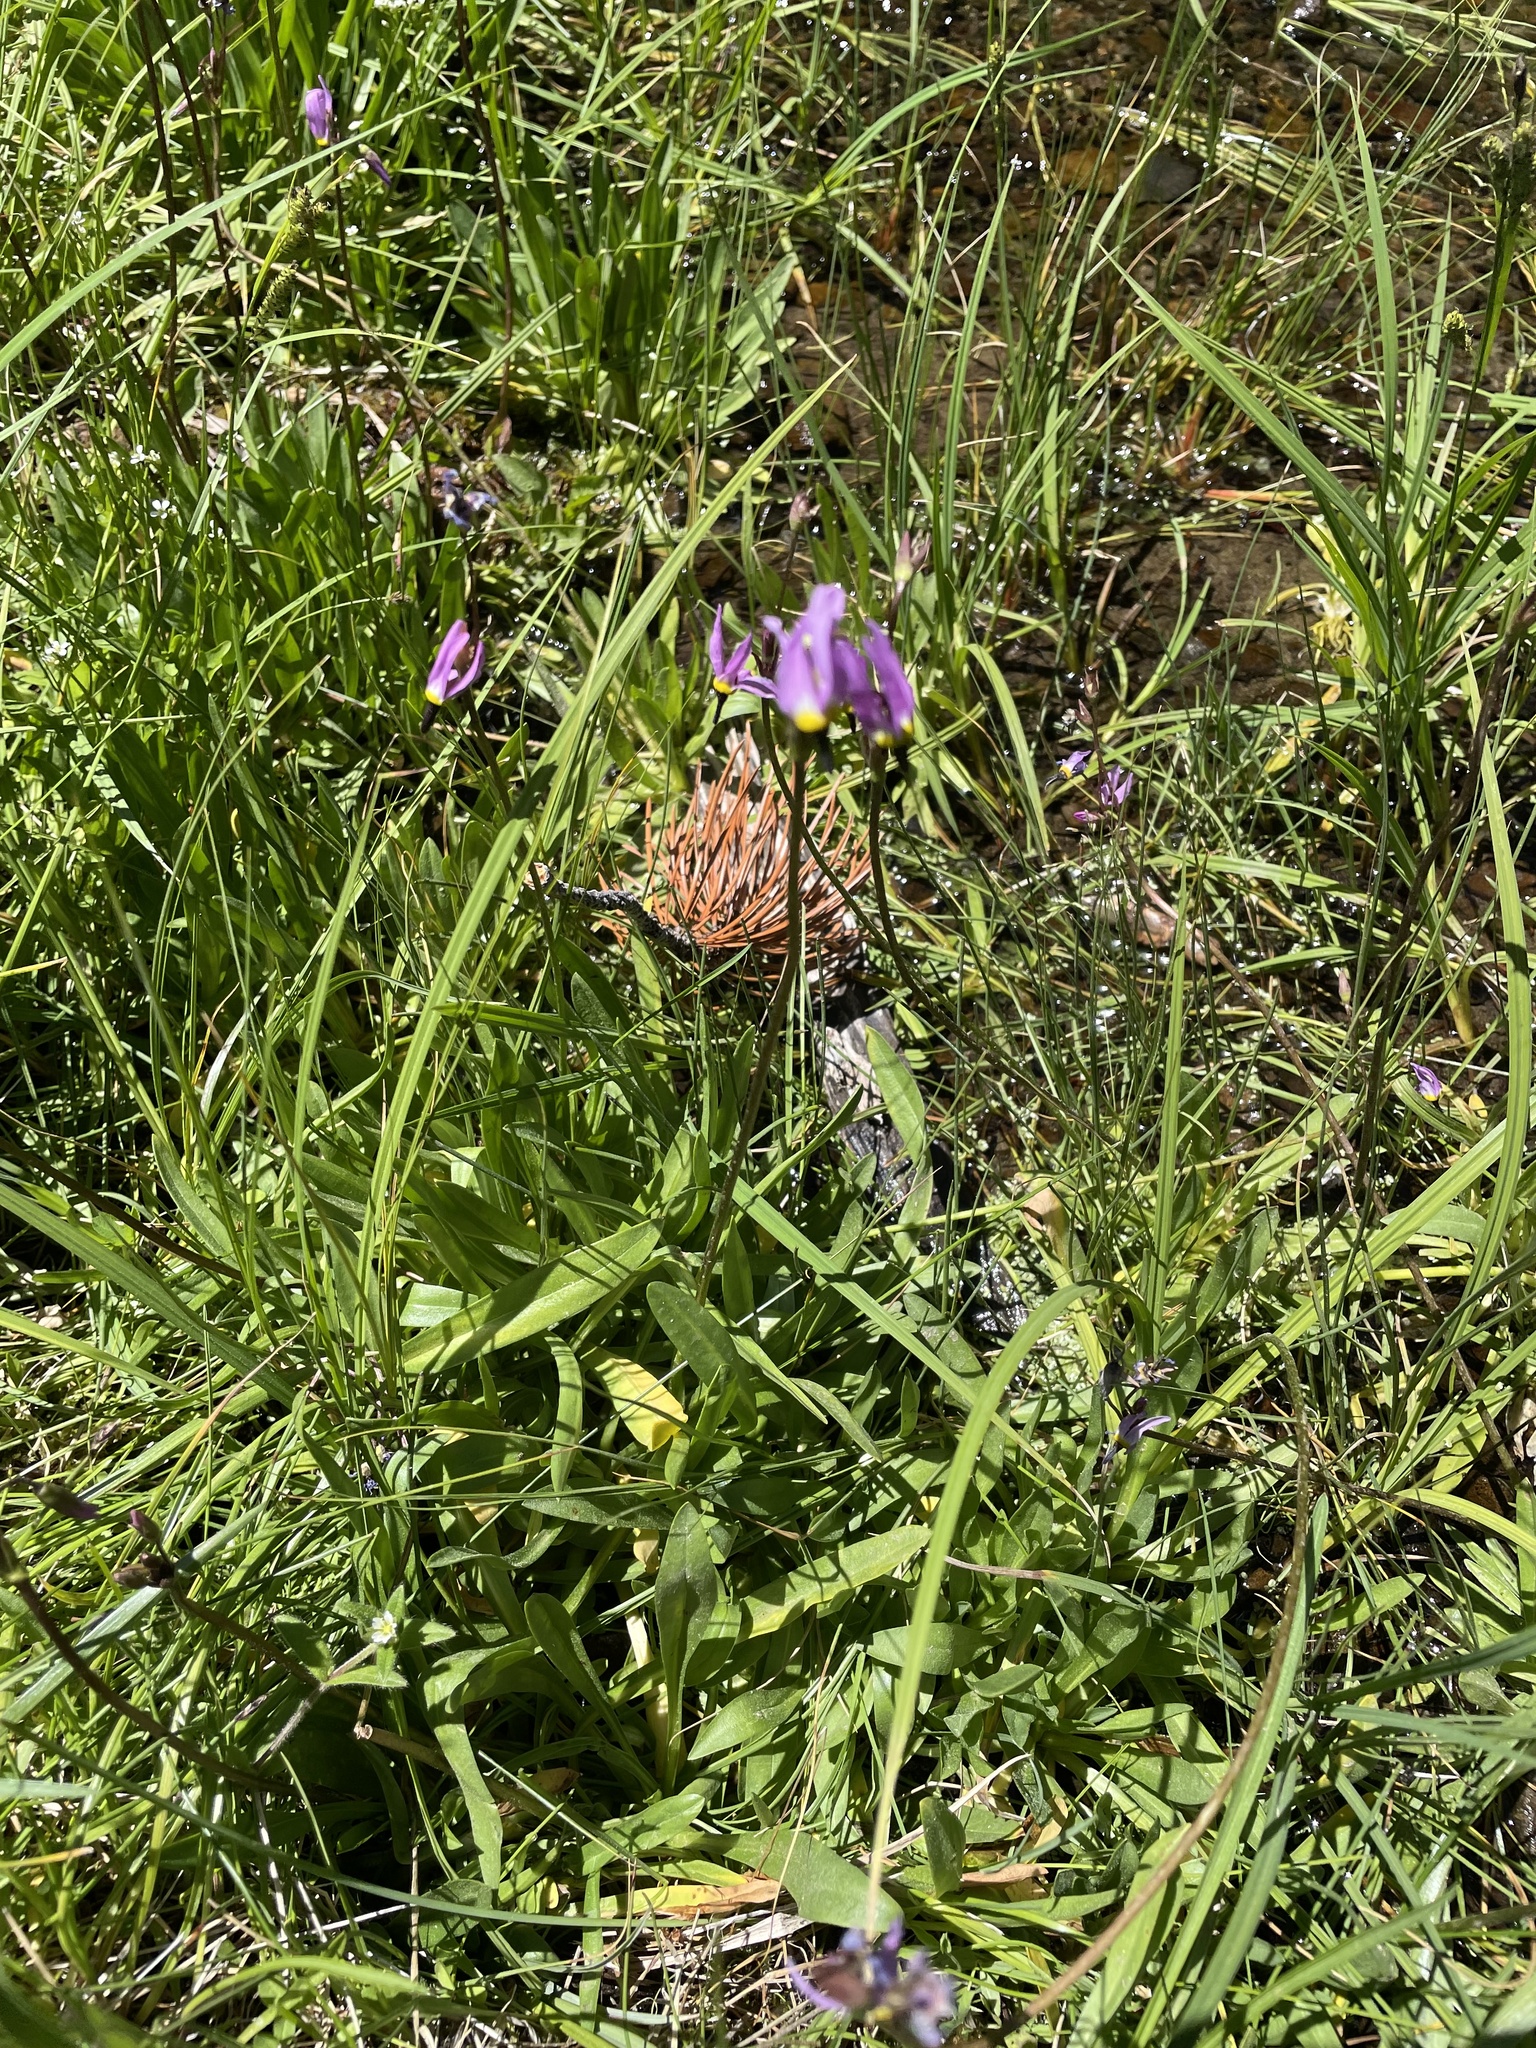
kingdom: Plantae
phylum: Tracheophyta
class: Magnoliopsida
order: Ericales
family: Primulaceae
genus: Dodecatheon
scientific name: Dodecatheon alpinum
